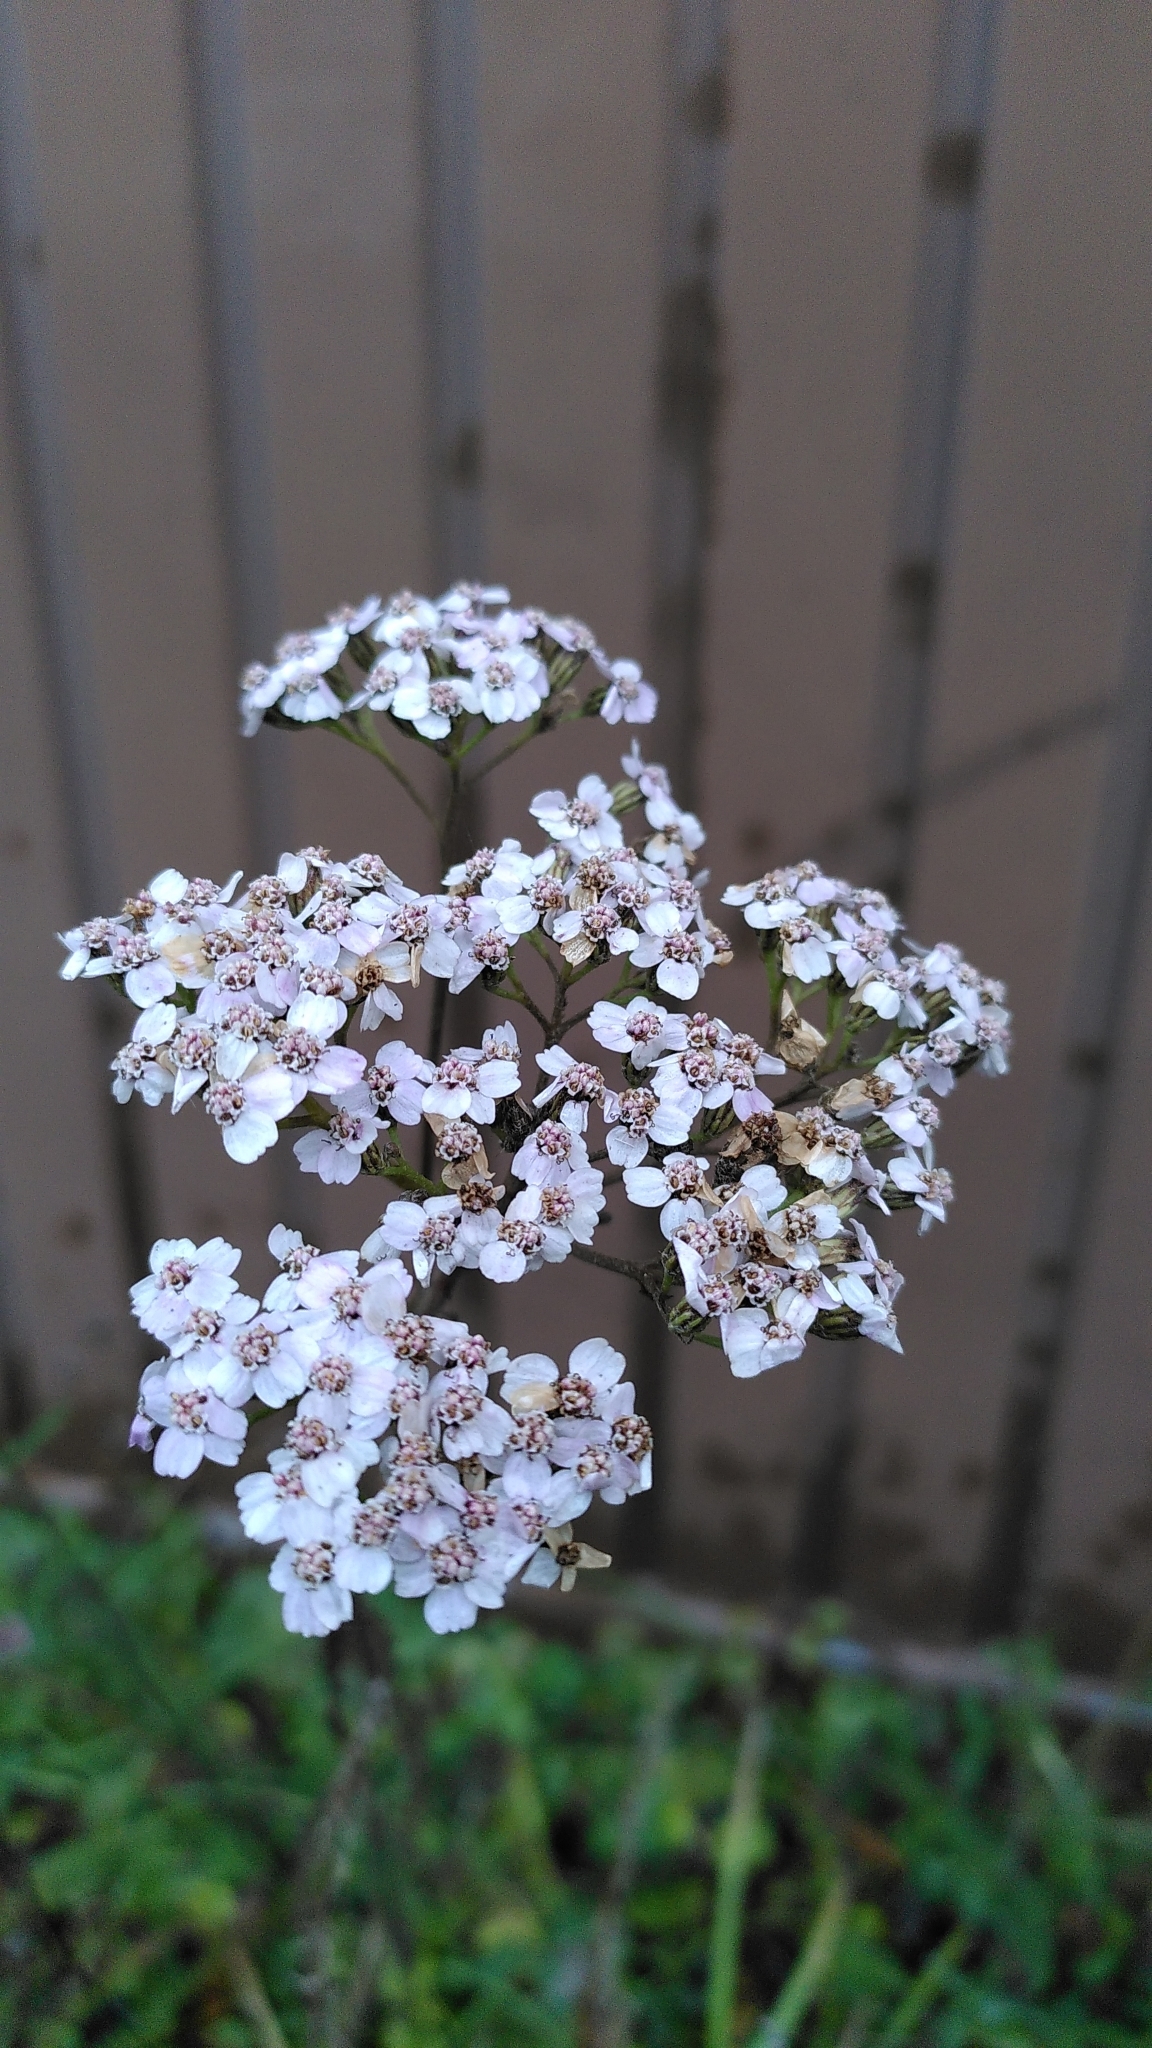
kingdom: Plantae
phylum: Tracheophyta
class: Magnoliopsida
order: Asterales
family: Asteraceae
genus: Achillea
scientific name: Achillea millefolium
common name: Yarrow
